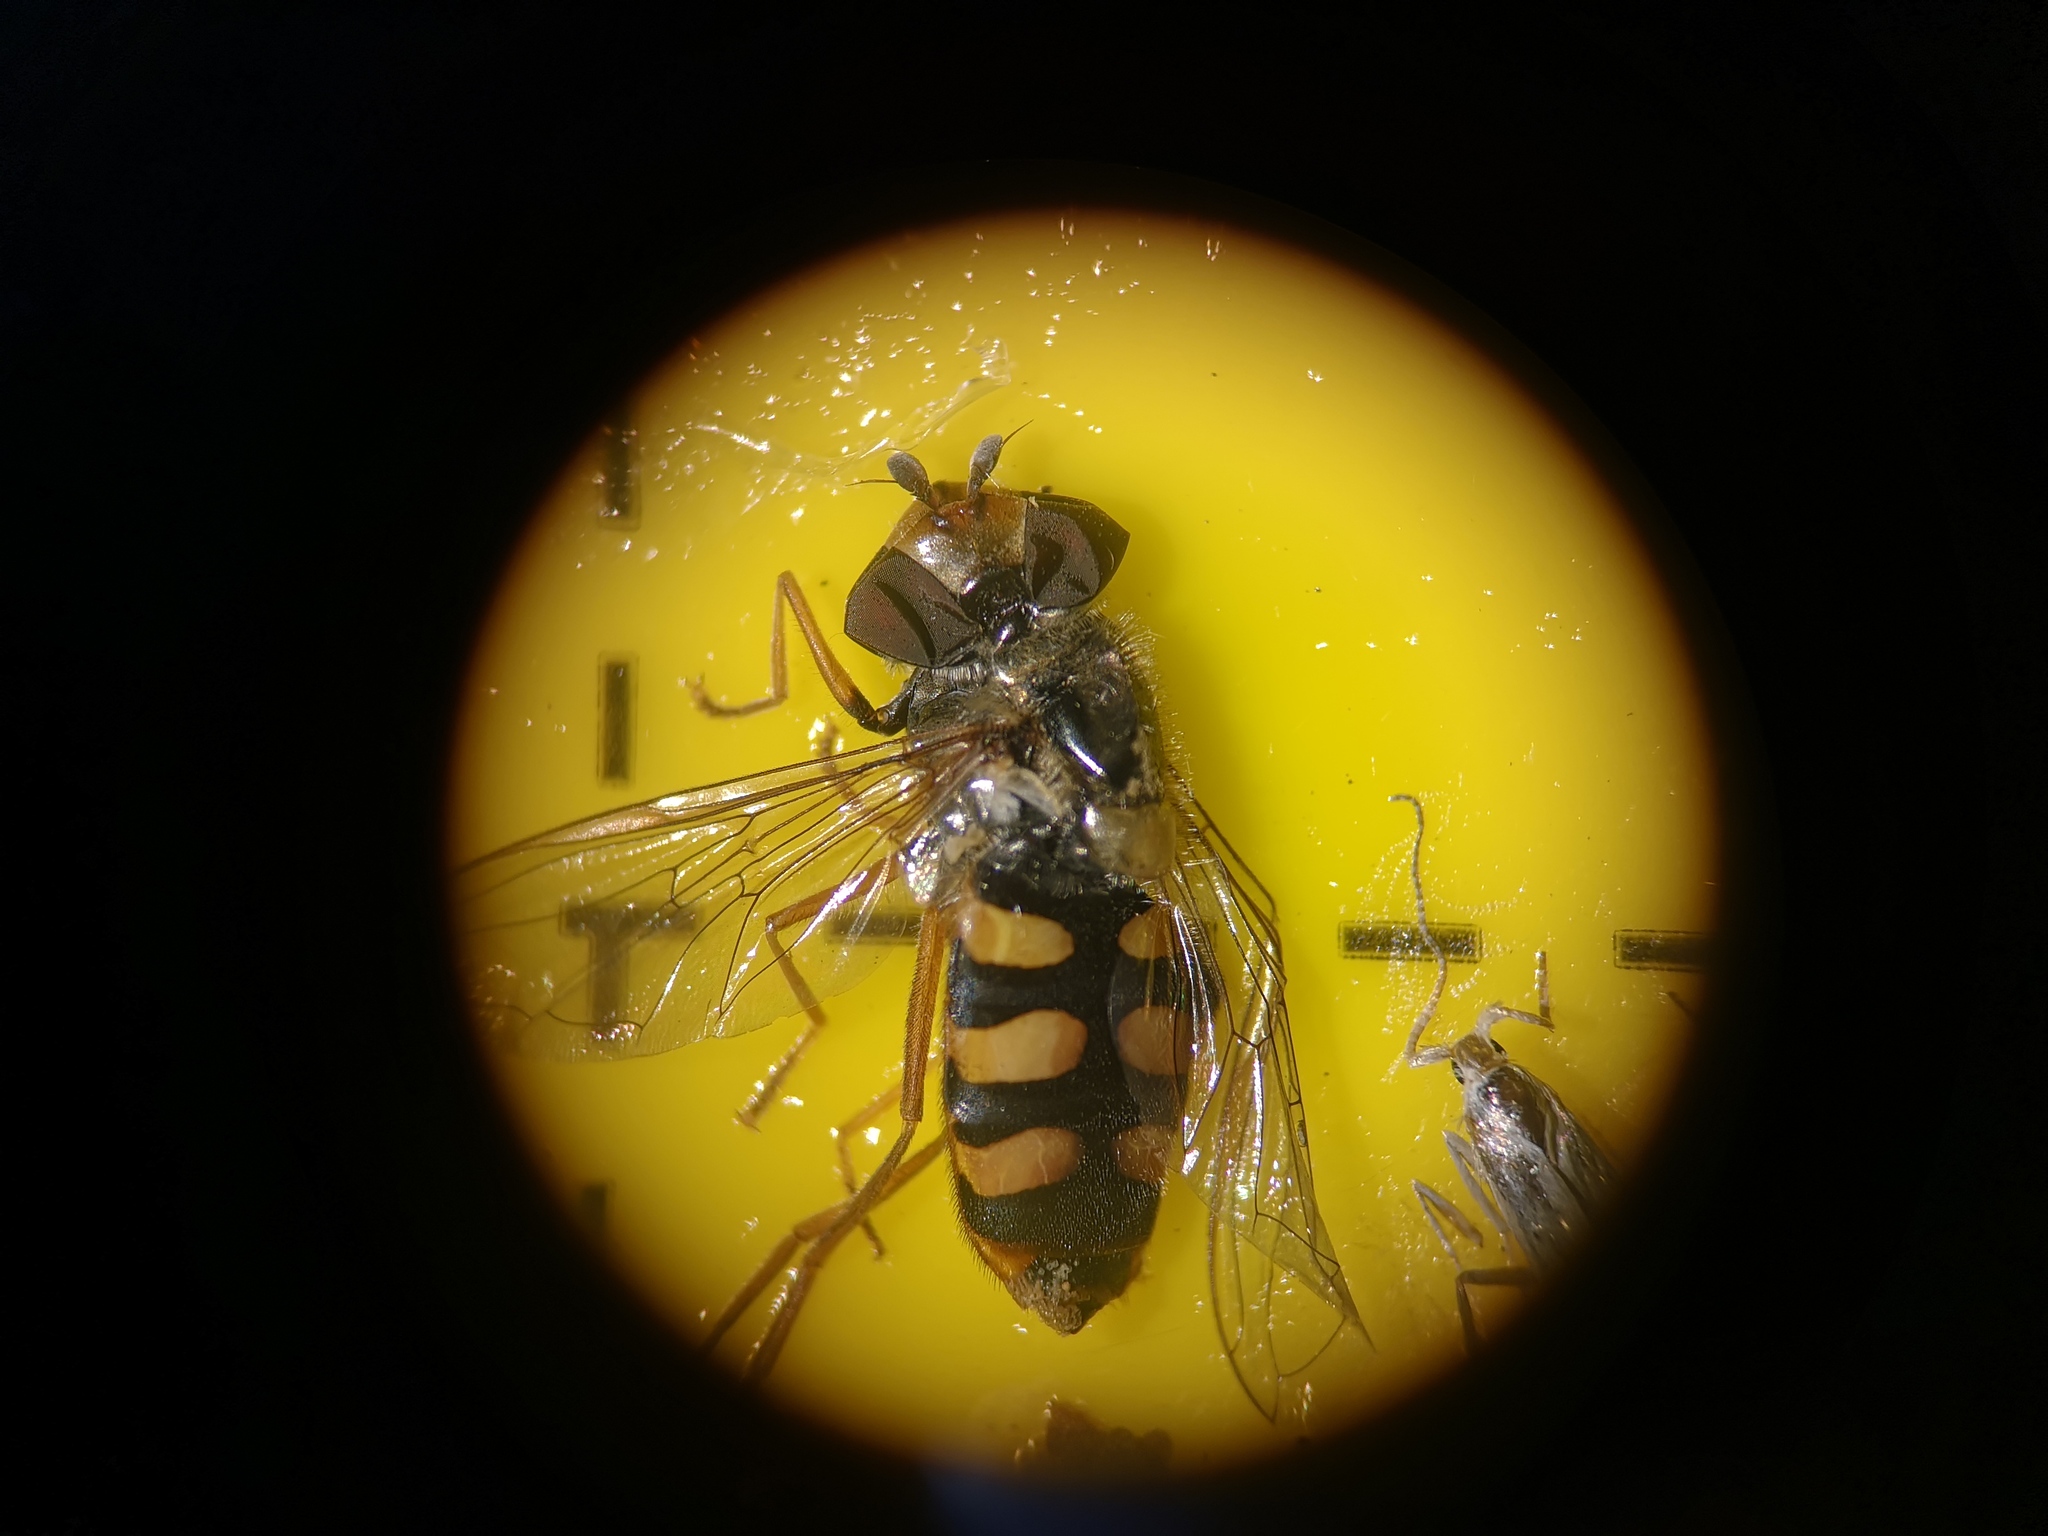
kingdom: Animalia
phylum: Arthropoda
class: Insecta
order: Diptera
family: Syrphidae
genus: Eupeodes
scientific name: Eupeodes corollae
